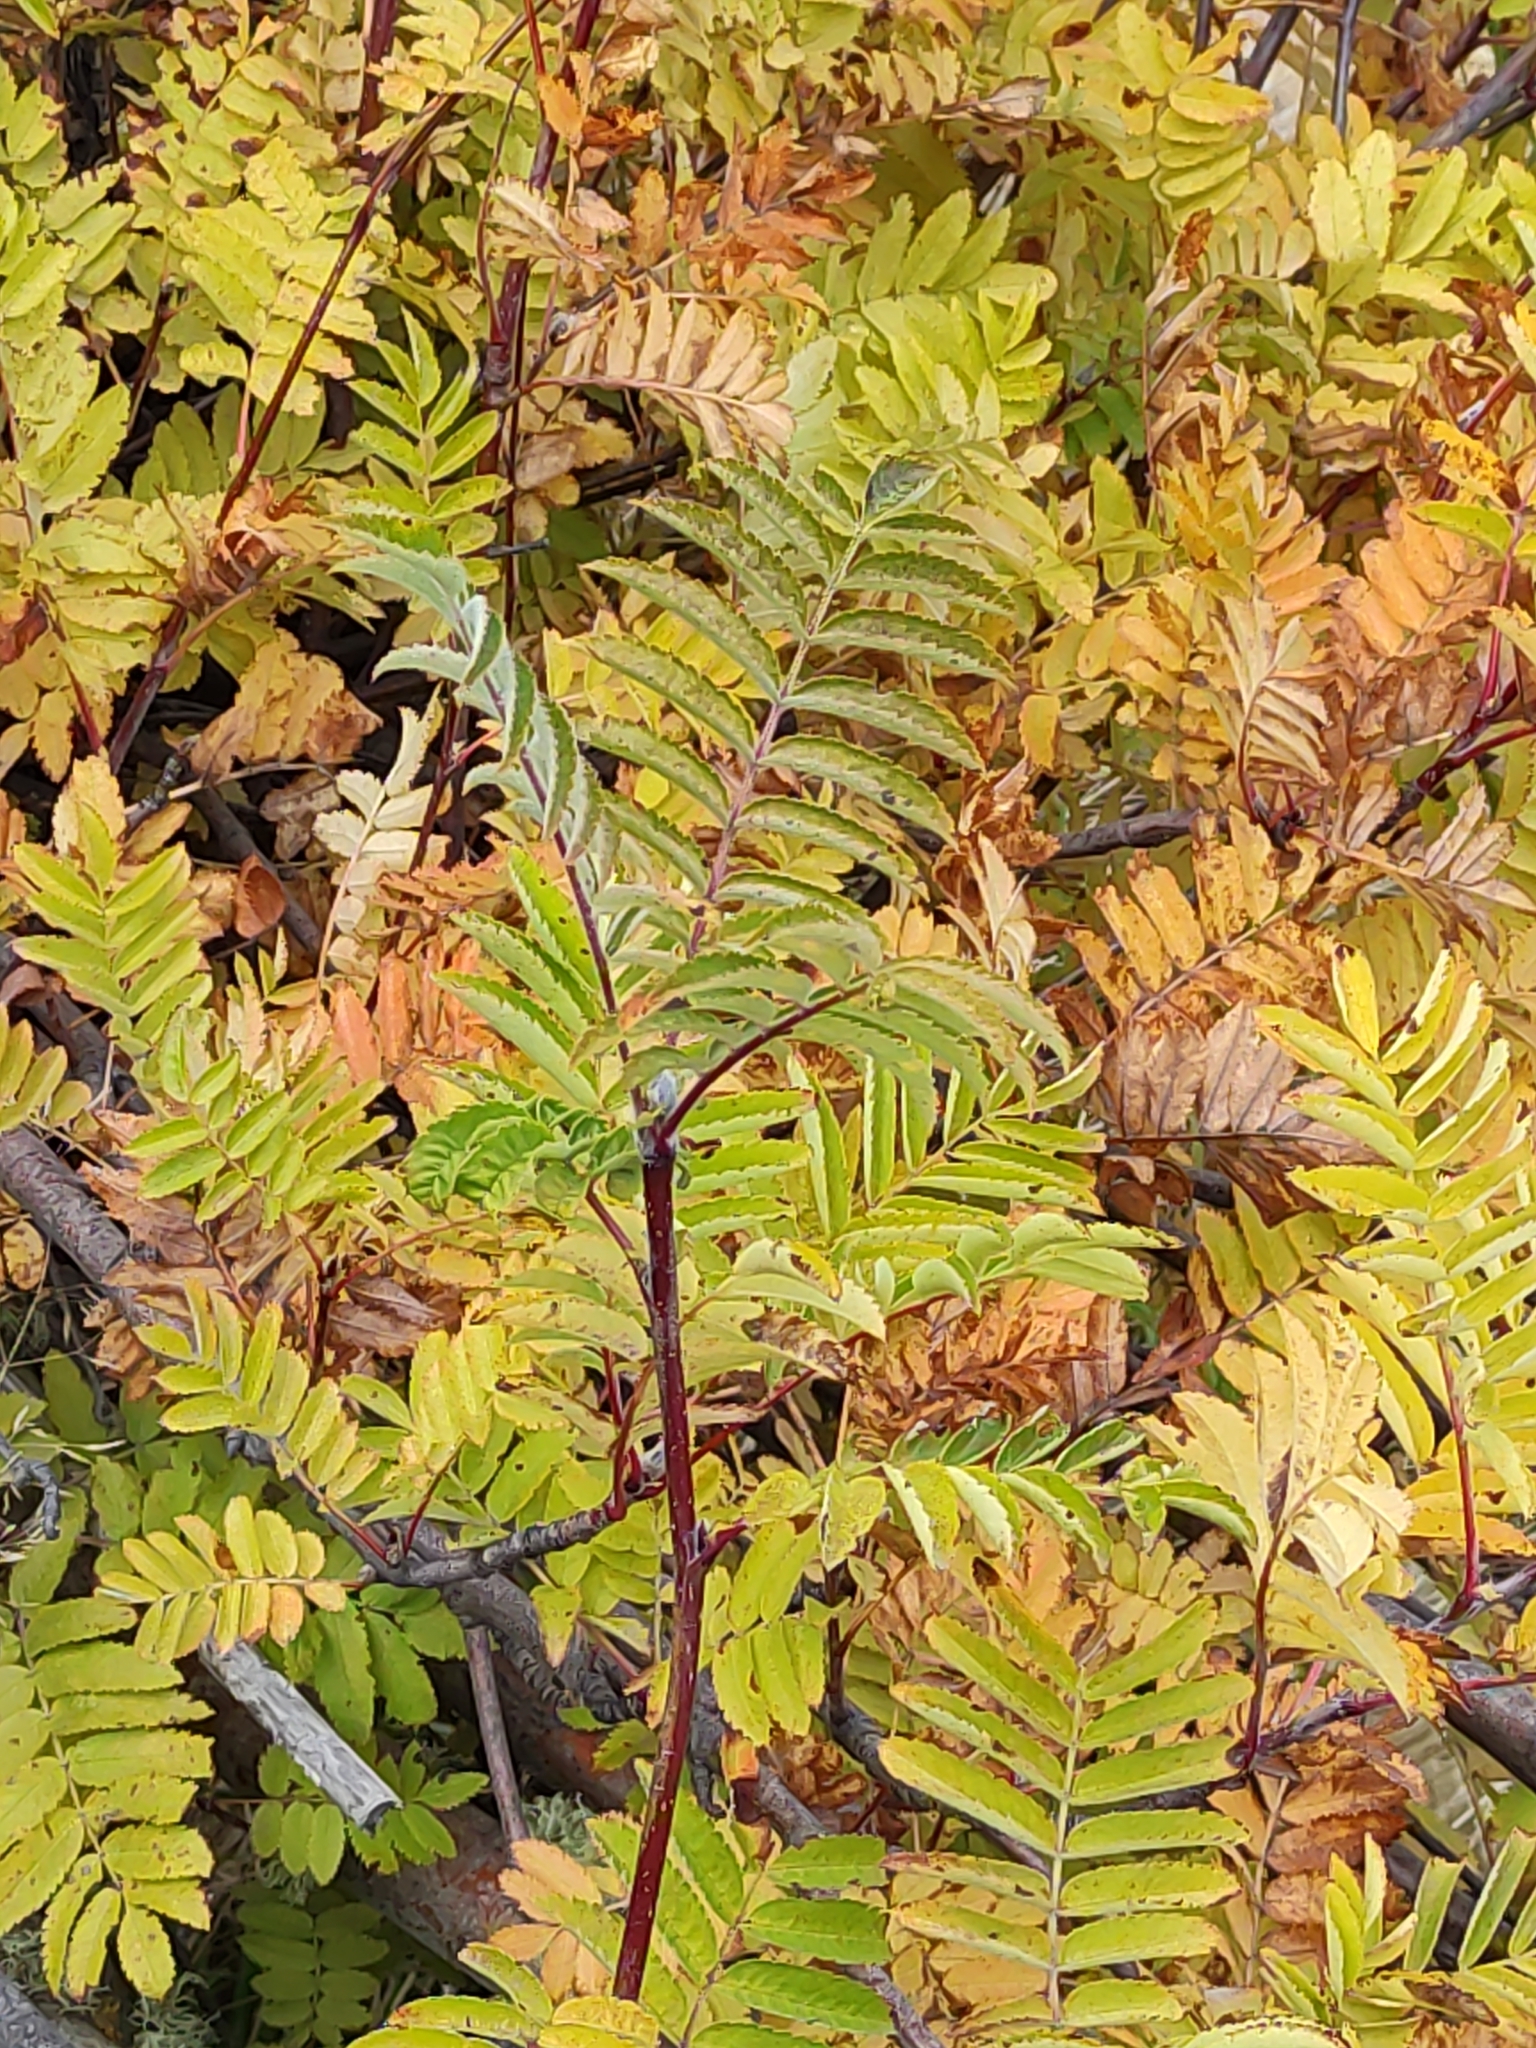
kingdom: Plantae
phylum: Tracheophyta
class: Magnoliopsida
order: Rosales
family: Rosaceae
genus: Sorbus
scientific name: Sorbus aucuparia
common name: Rowan
